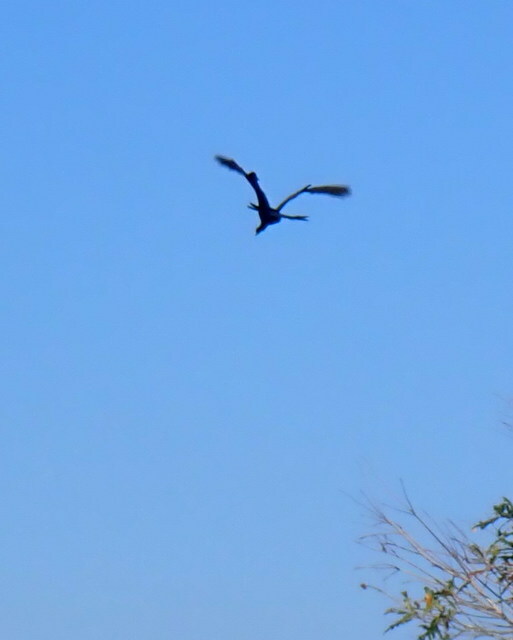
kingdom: Animalia
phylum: Chordata
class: Aves
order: Suliformes
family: Anhingidae
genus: Anhinga
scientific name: Anhinga anhinga
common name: Anhinga
